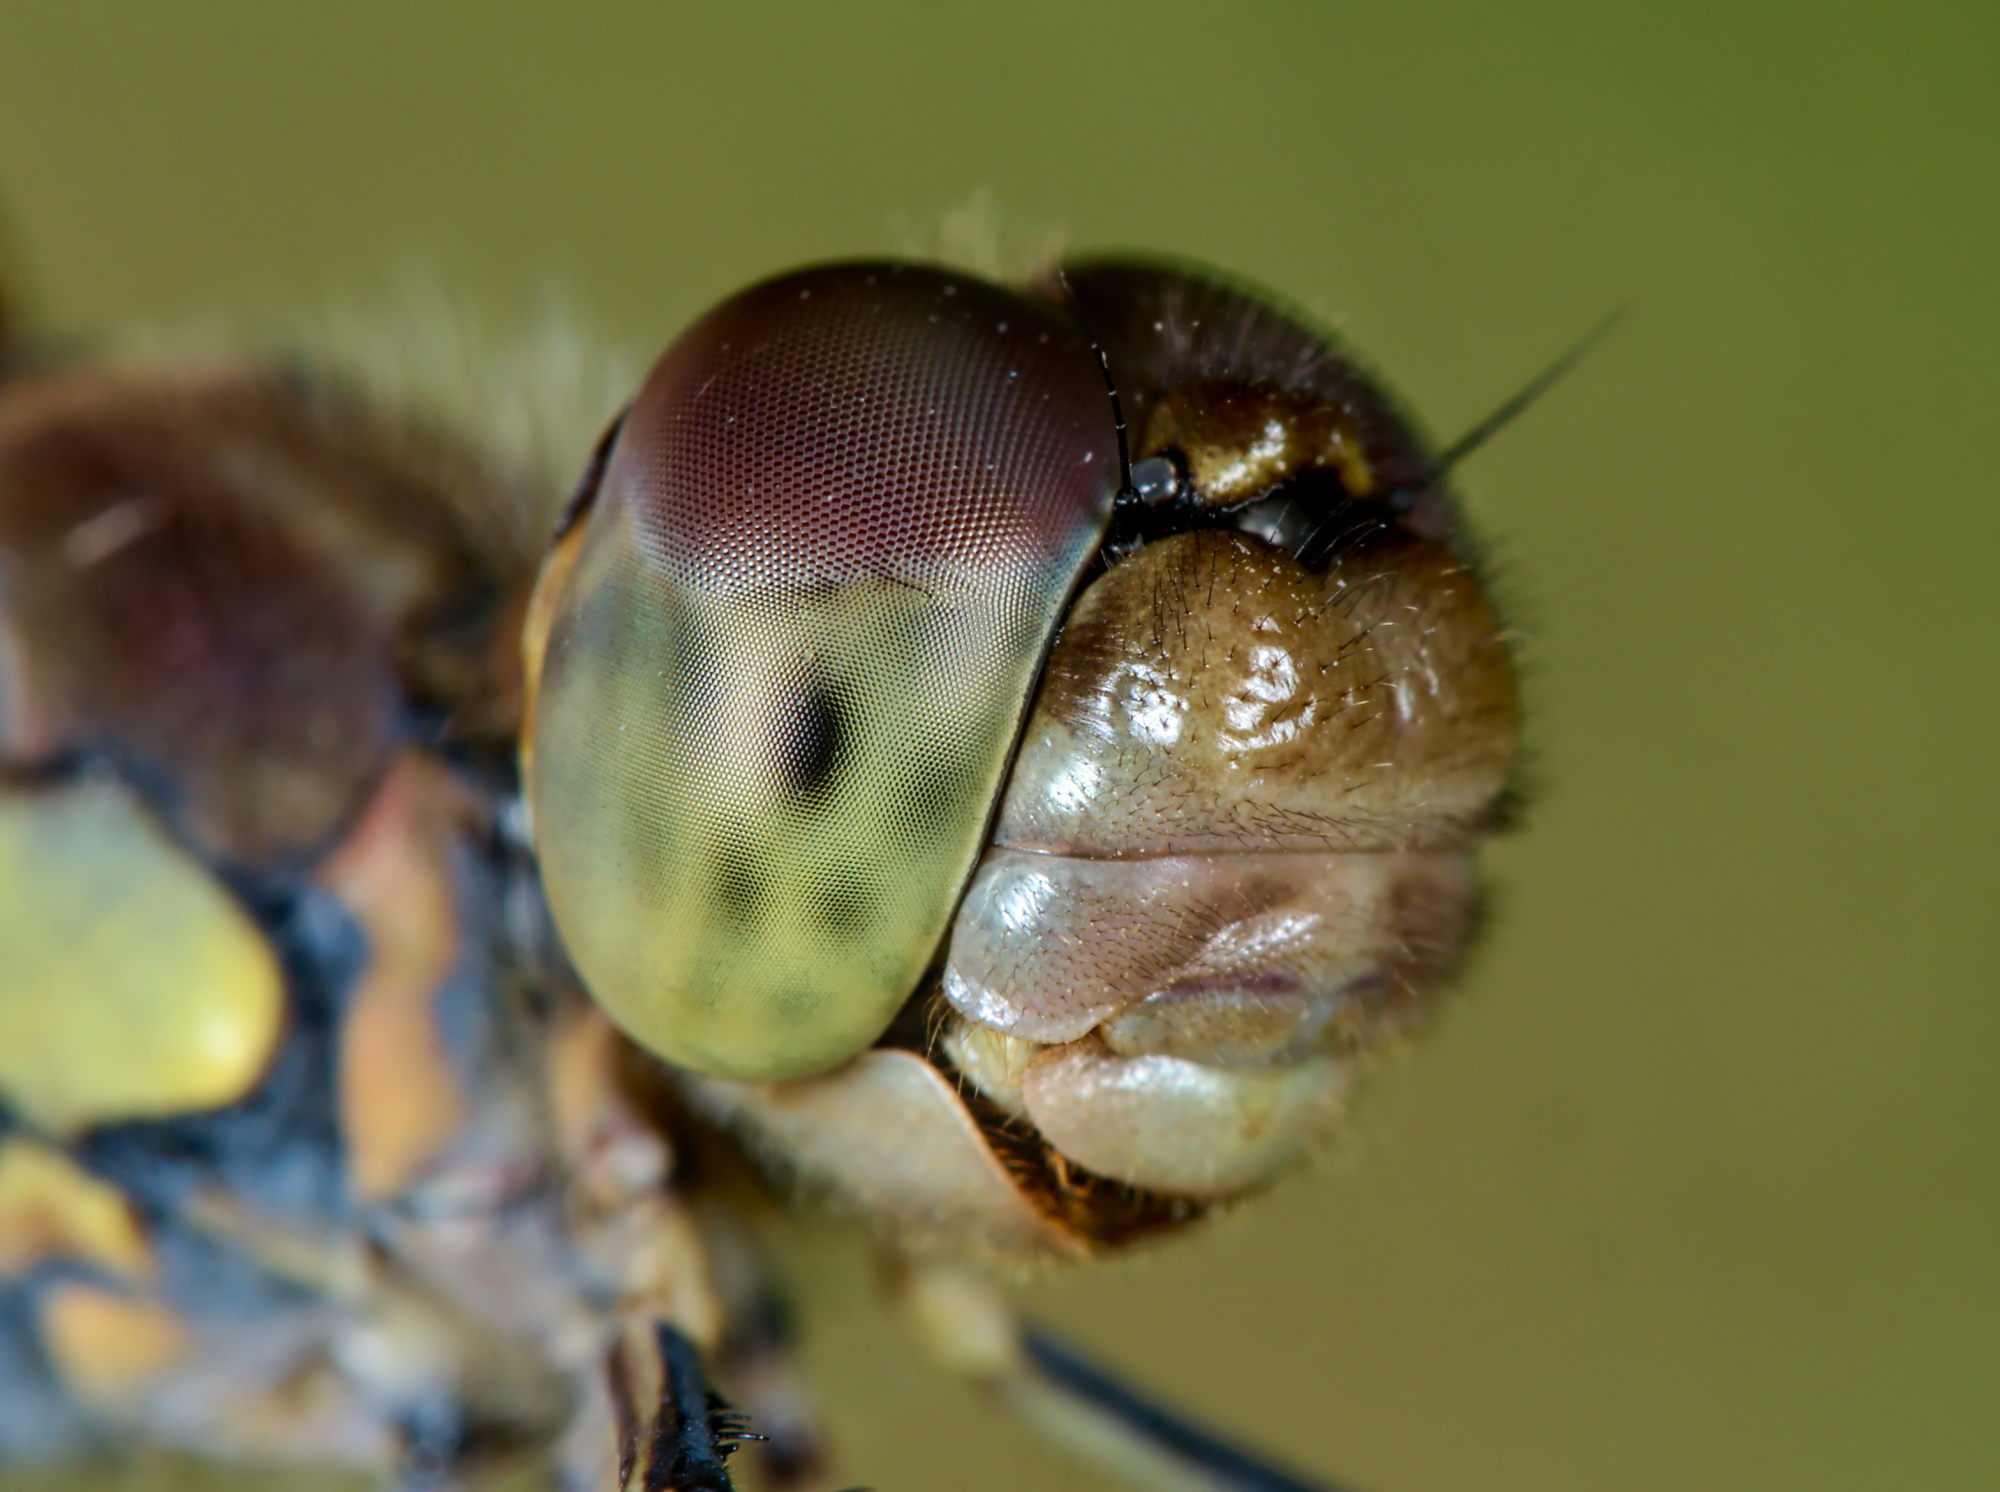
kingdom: Animalia
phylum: Arthropoda
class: Insecta
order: Odonata
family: Libellulidae
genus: Sympetrum
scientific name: Sympetrum striolatum
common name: Common darter
